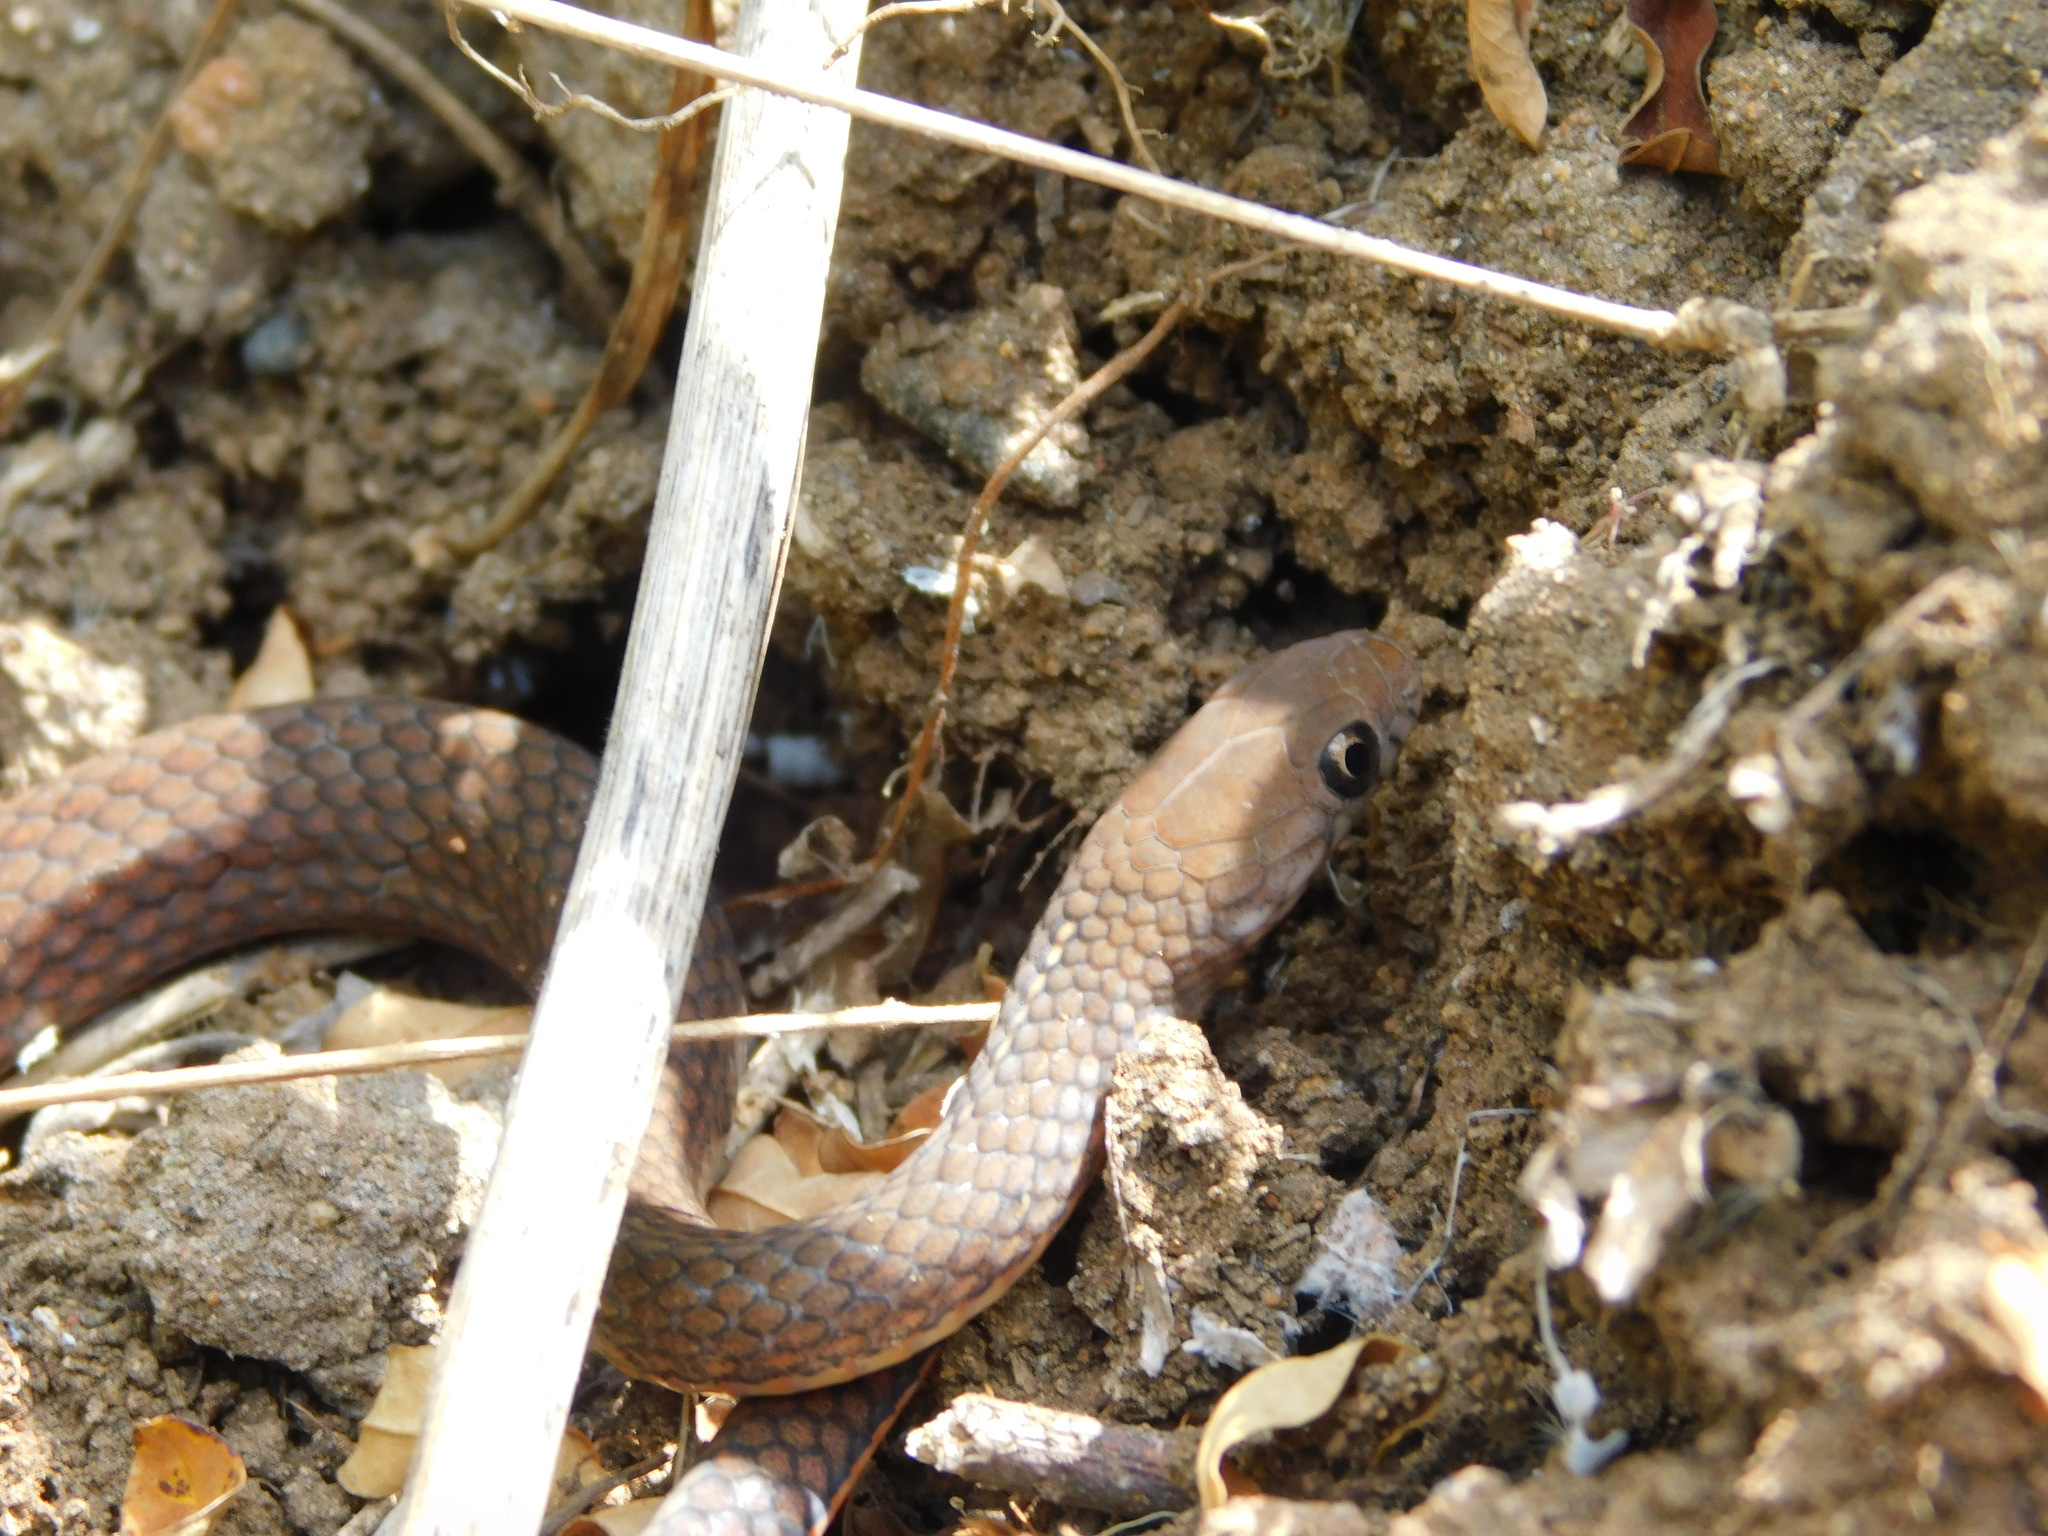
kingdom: Animalia
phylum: Chordata
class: Squamata
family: Colubridae
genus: Gongylosoma
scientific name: Gongylosoma baliodeira
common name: Orange-bellied ringneck/spotted ground snake
